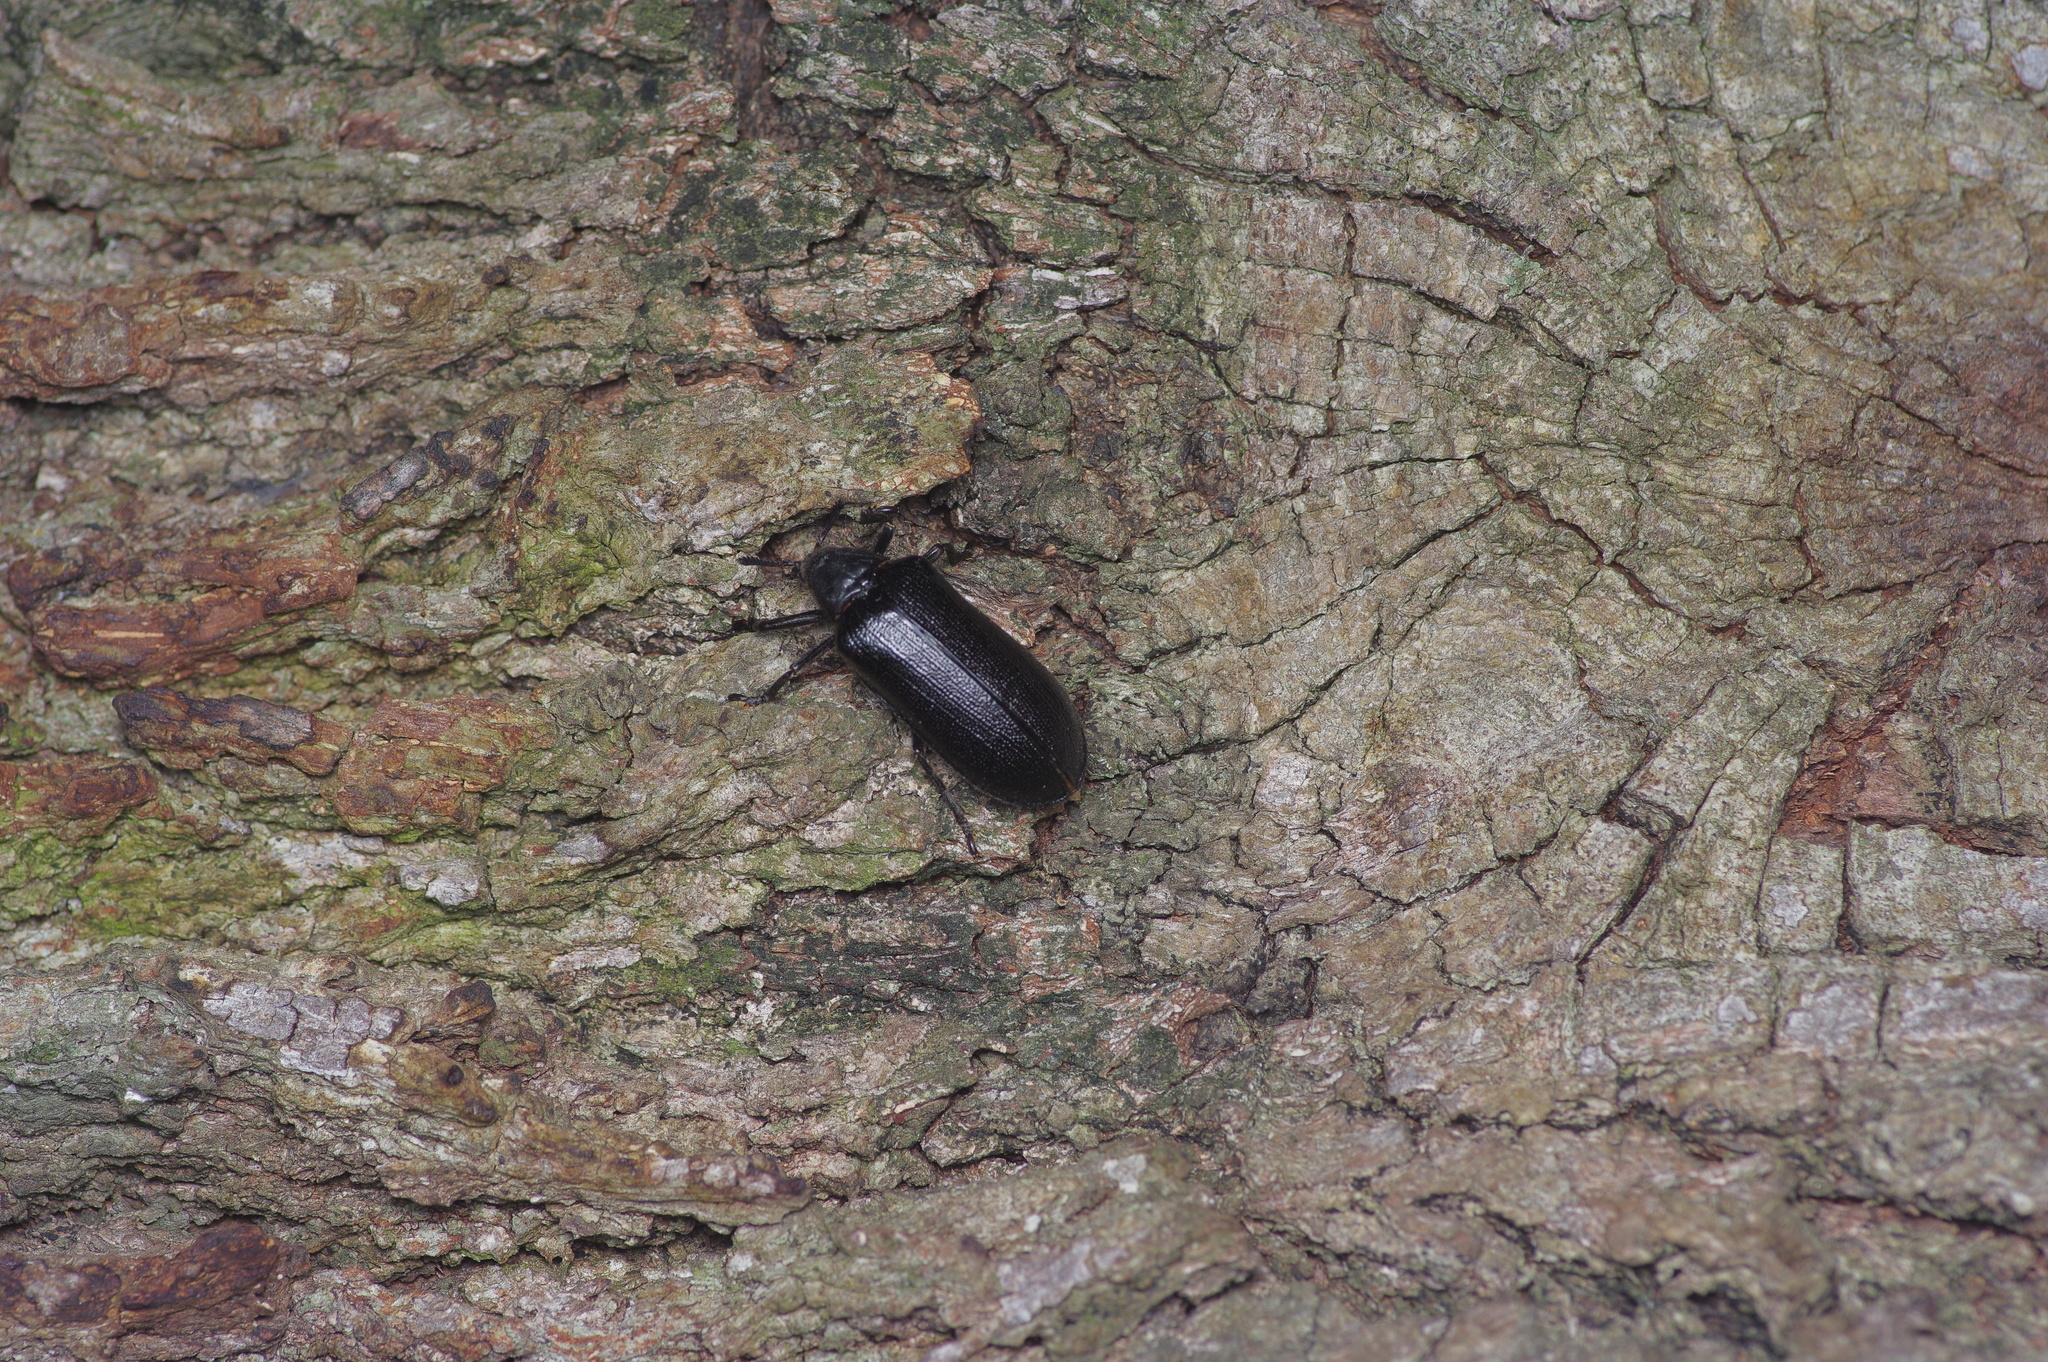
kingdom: Animalia
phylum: Arthropoda
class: Insecta
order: Coleoptera
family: Rhipiceridae
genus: Sandalus
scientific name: Sandalus niger
